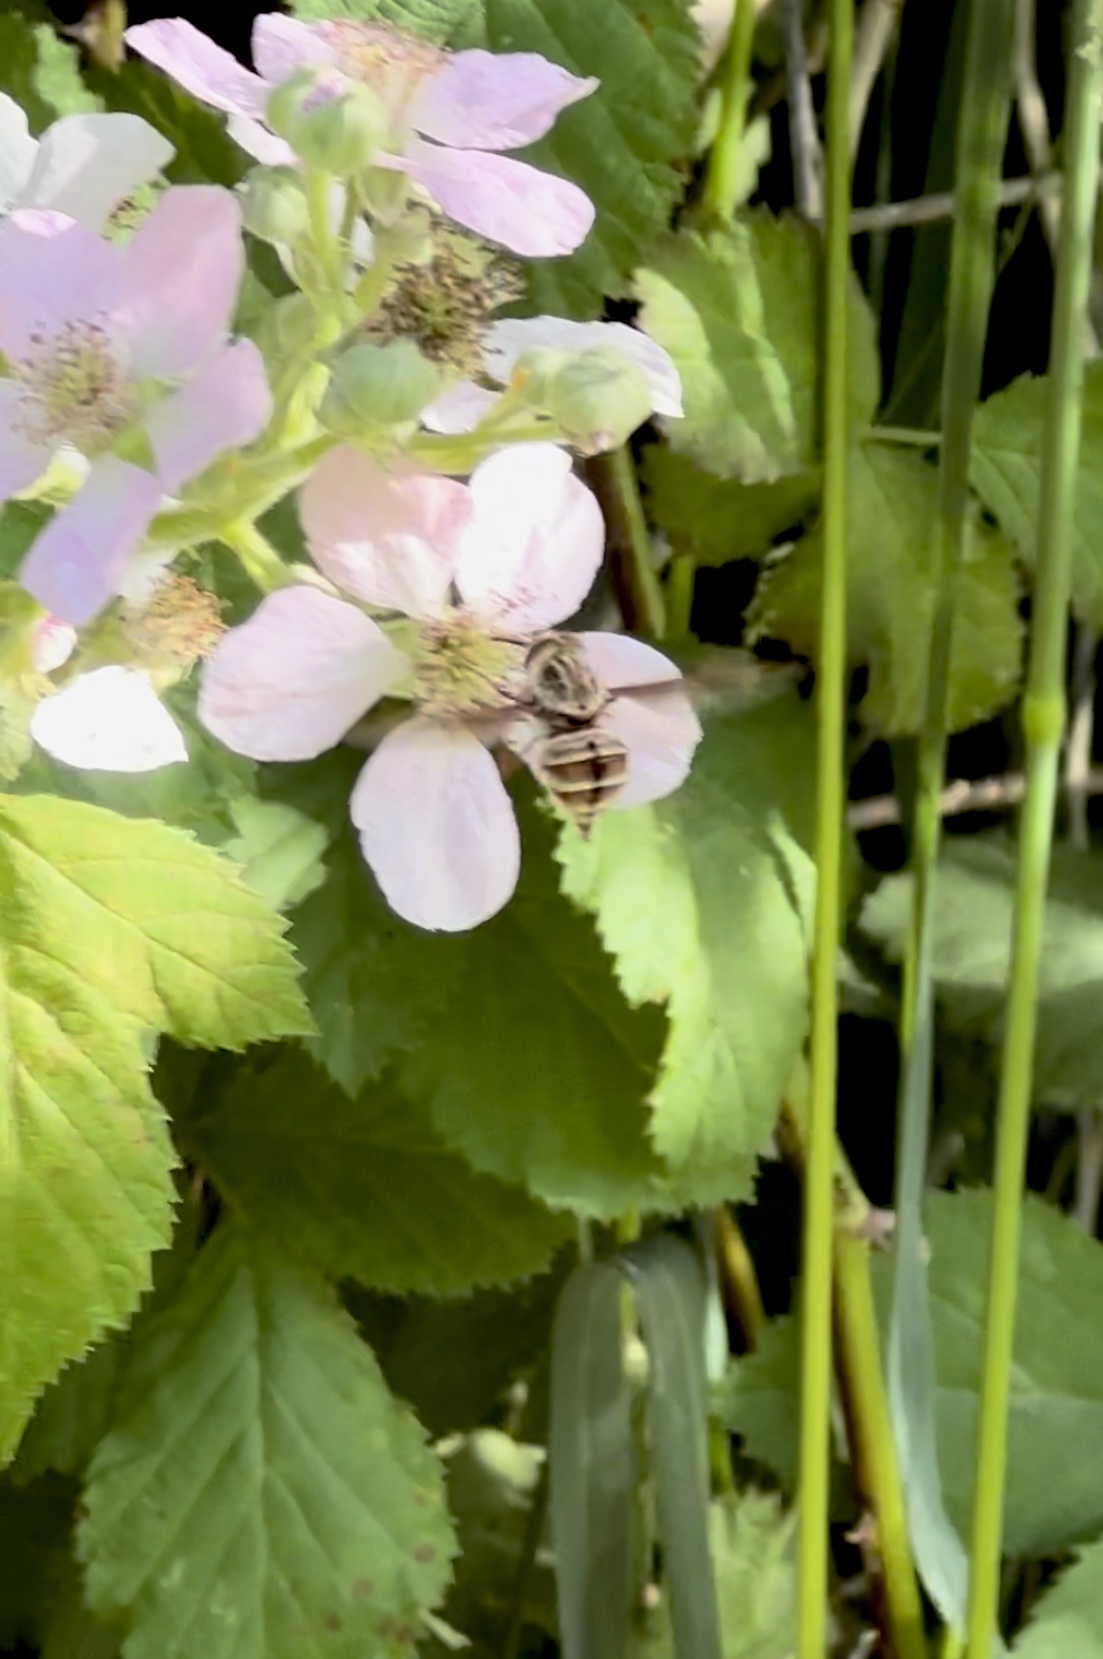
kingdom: Animalia
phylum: Arthropoda
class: Insecta
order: Diptera
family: Nemestrinidae
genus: Trichophthalma
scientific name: Trichophthalma nubipennis
